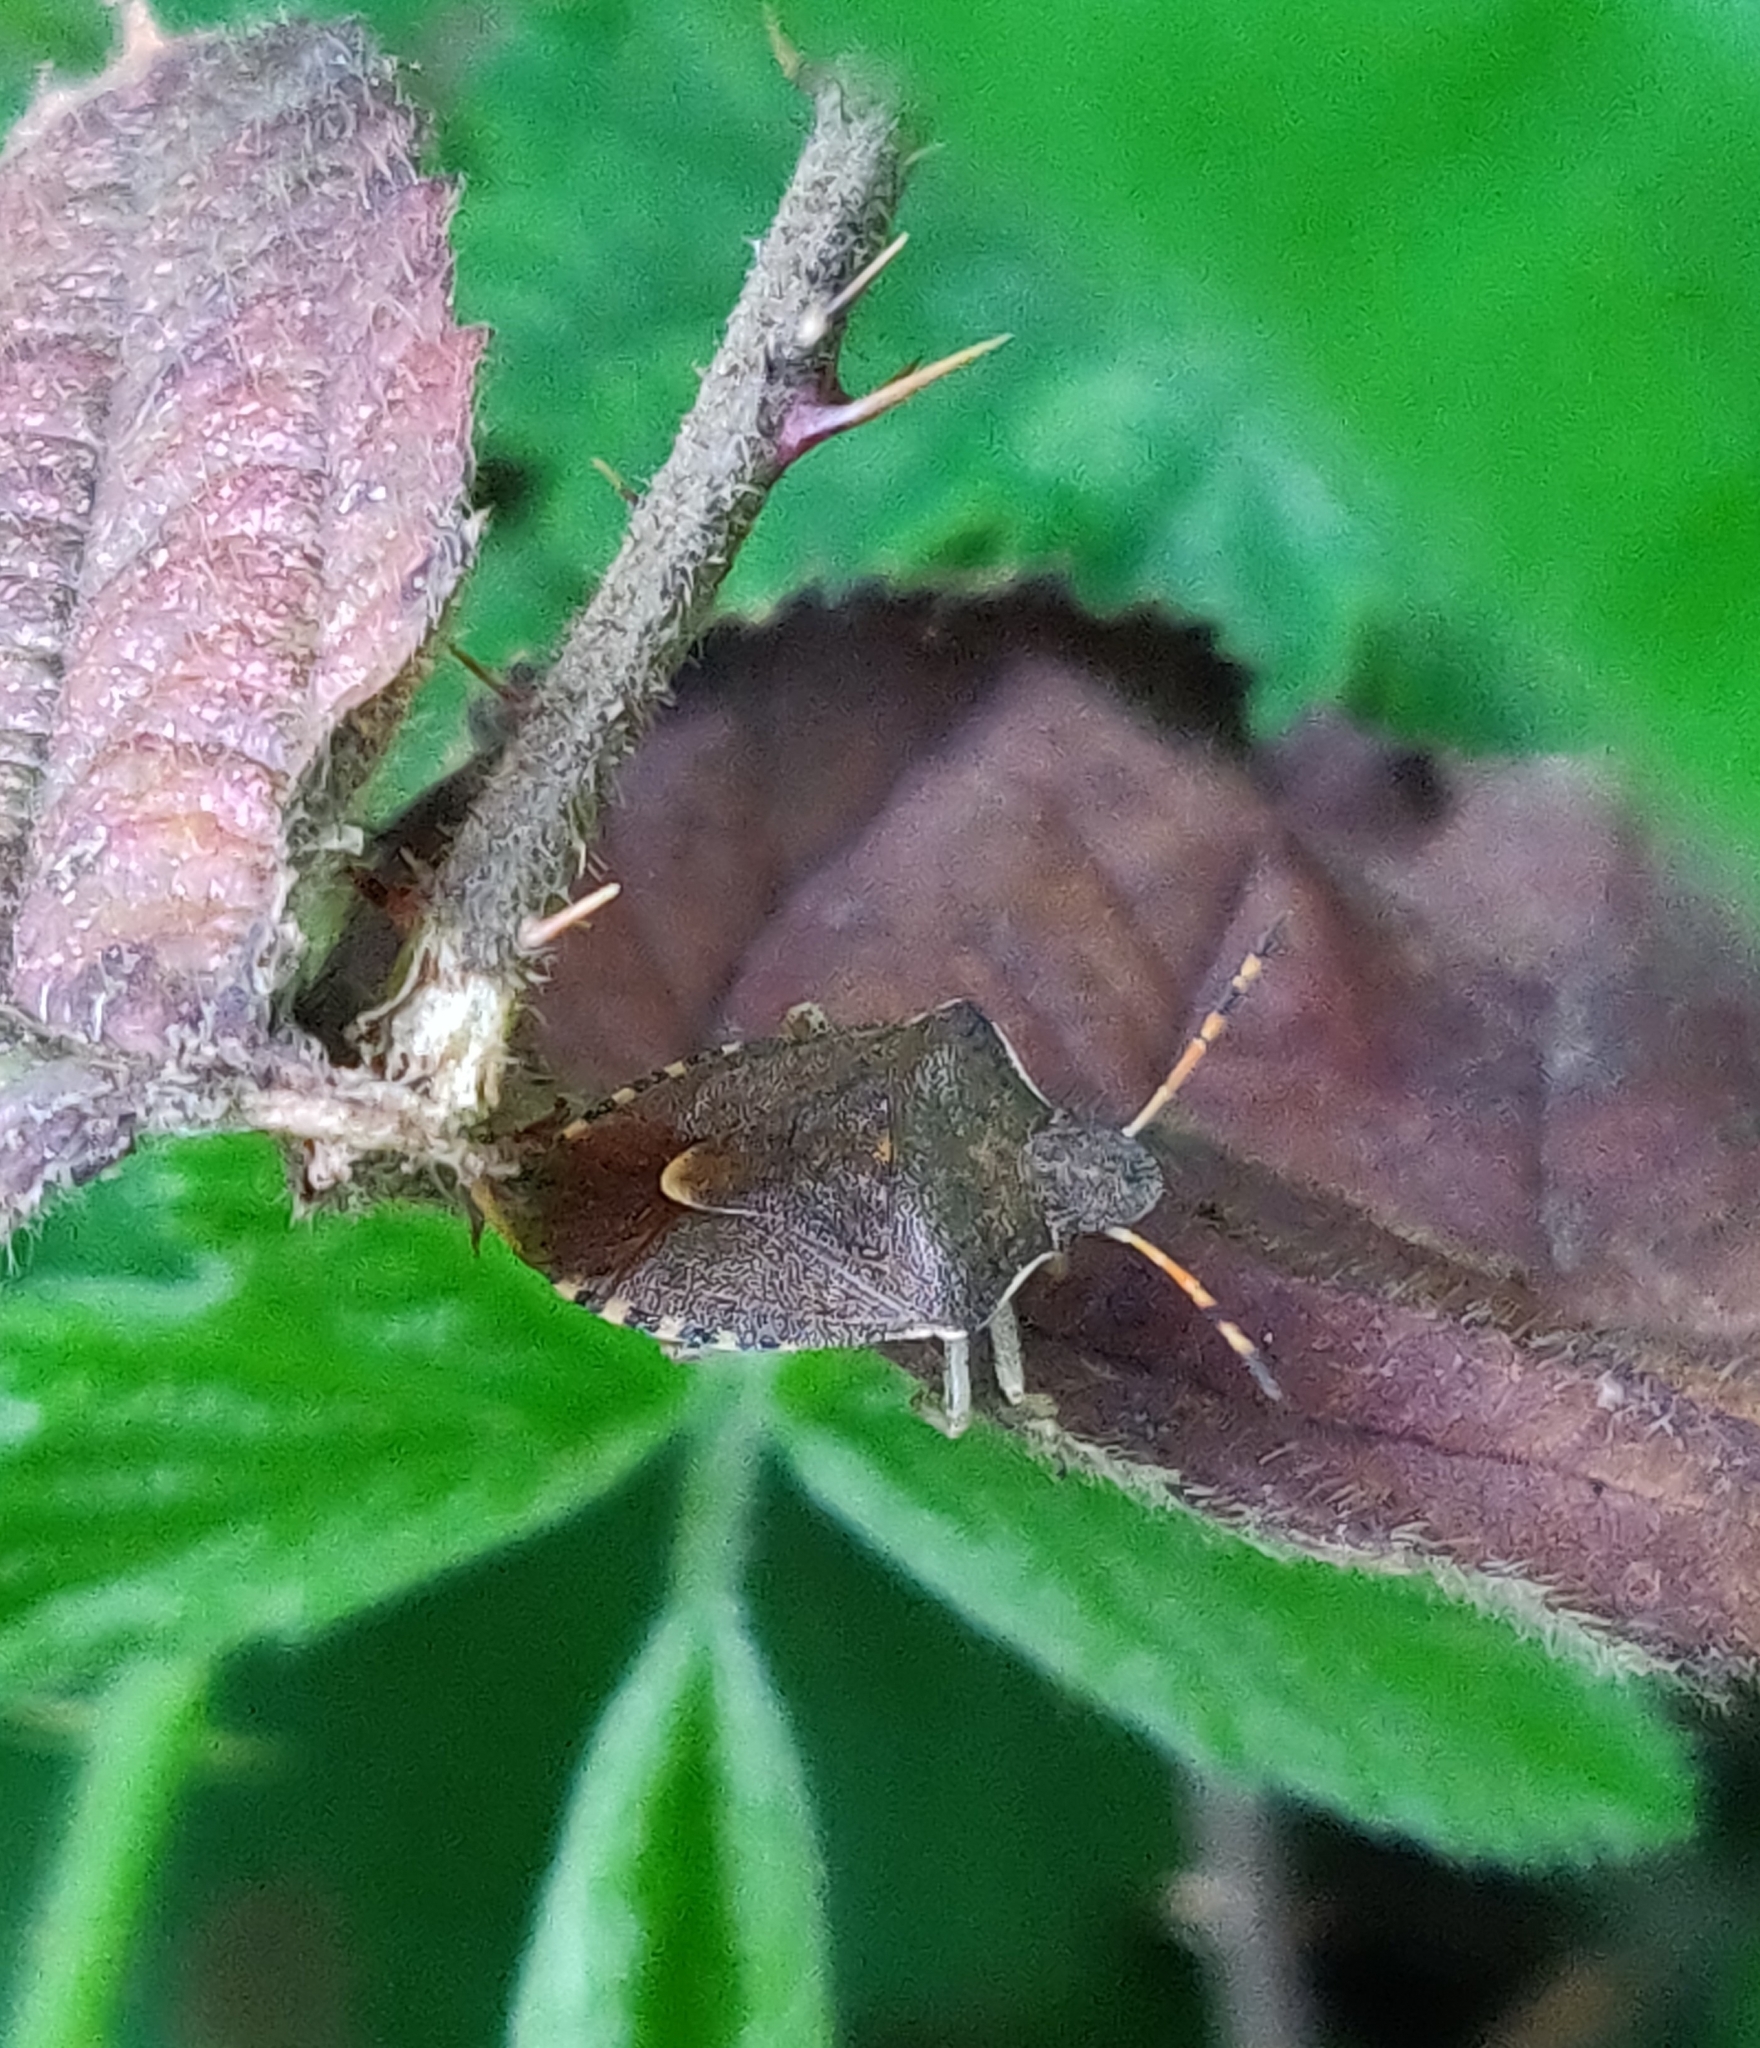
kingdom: Animalia
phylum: Arthropoda
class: Insecta
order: Hemiptera
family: Pentatomidae
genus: Holcostethus
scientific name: Holcostethus strictus
